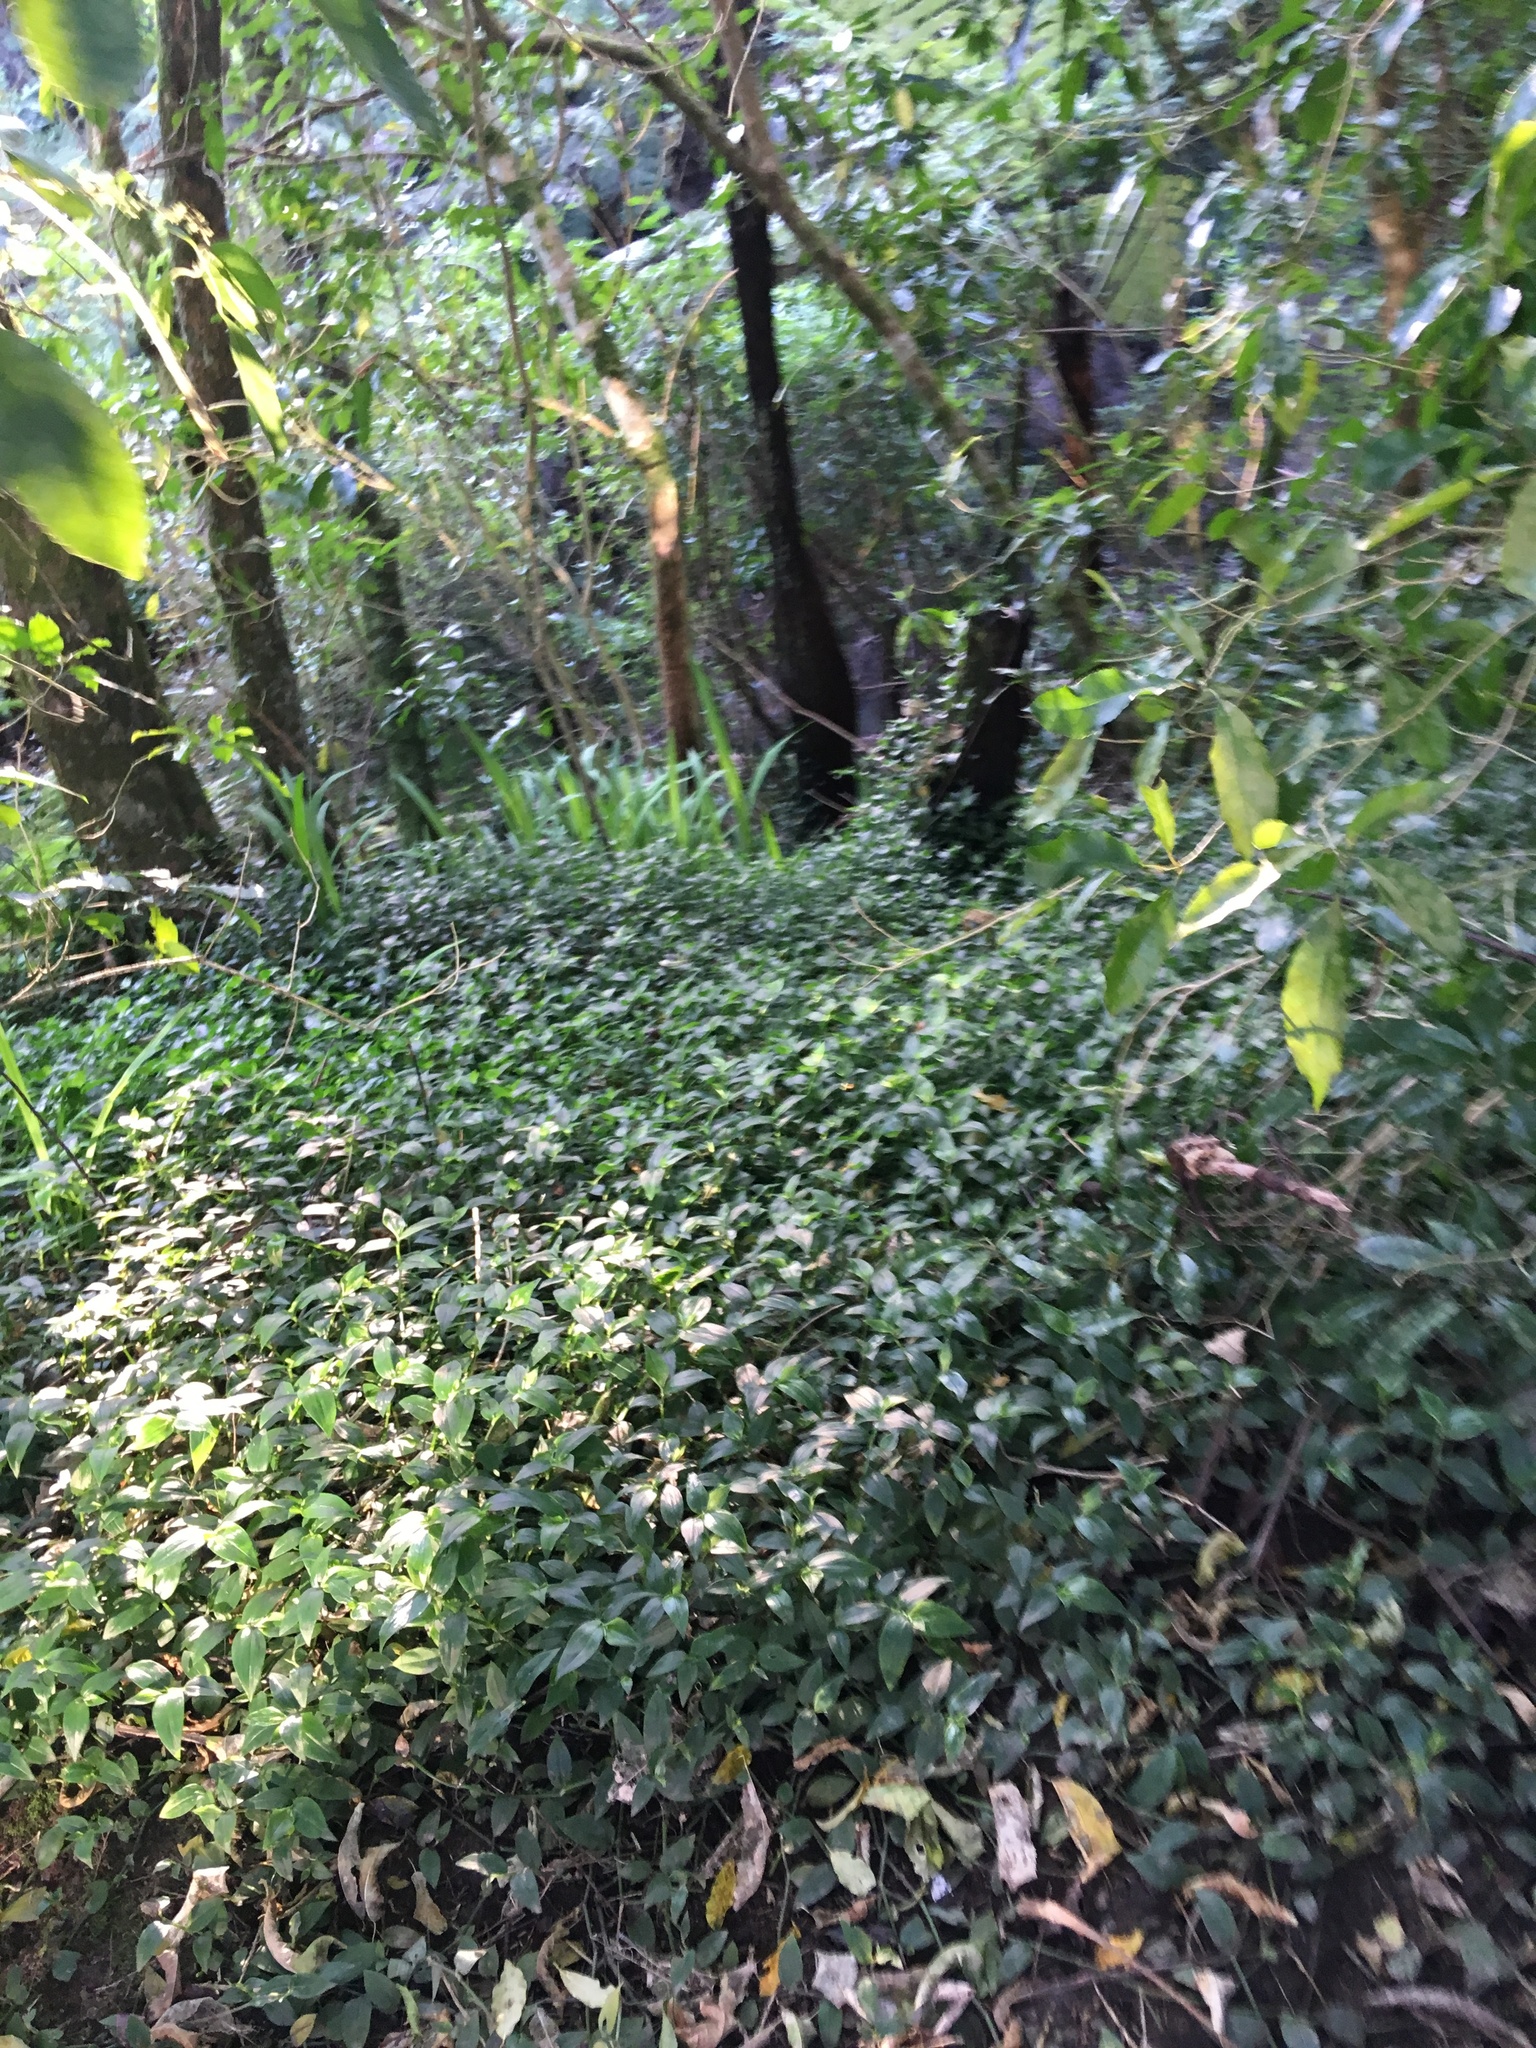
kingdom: Plantae
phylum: Tracheophyta
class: Liliopsida
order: Commelinales
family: Commelinaceae
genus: Tradescantia
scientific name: Tradescantia fluminensis
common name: Wandering-jew
